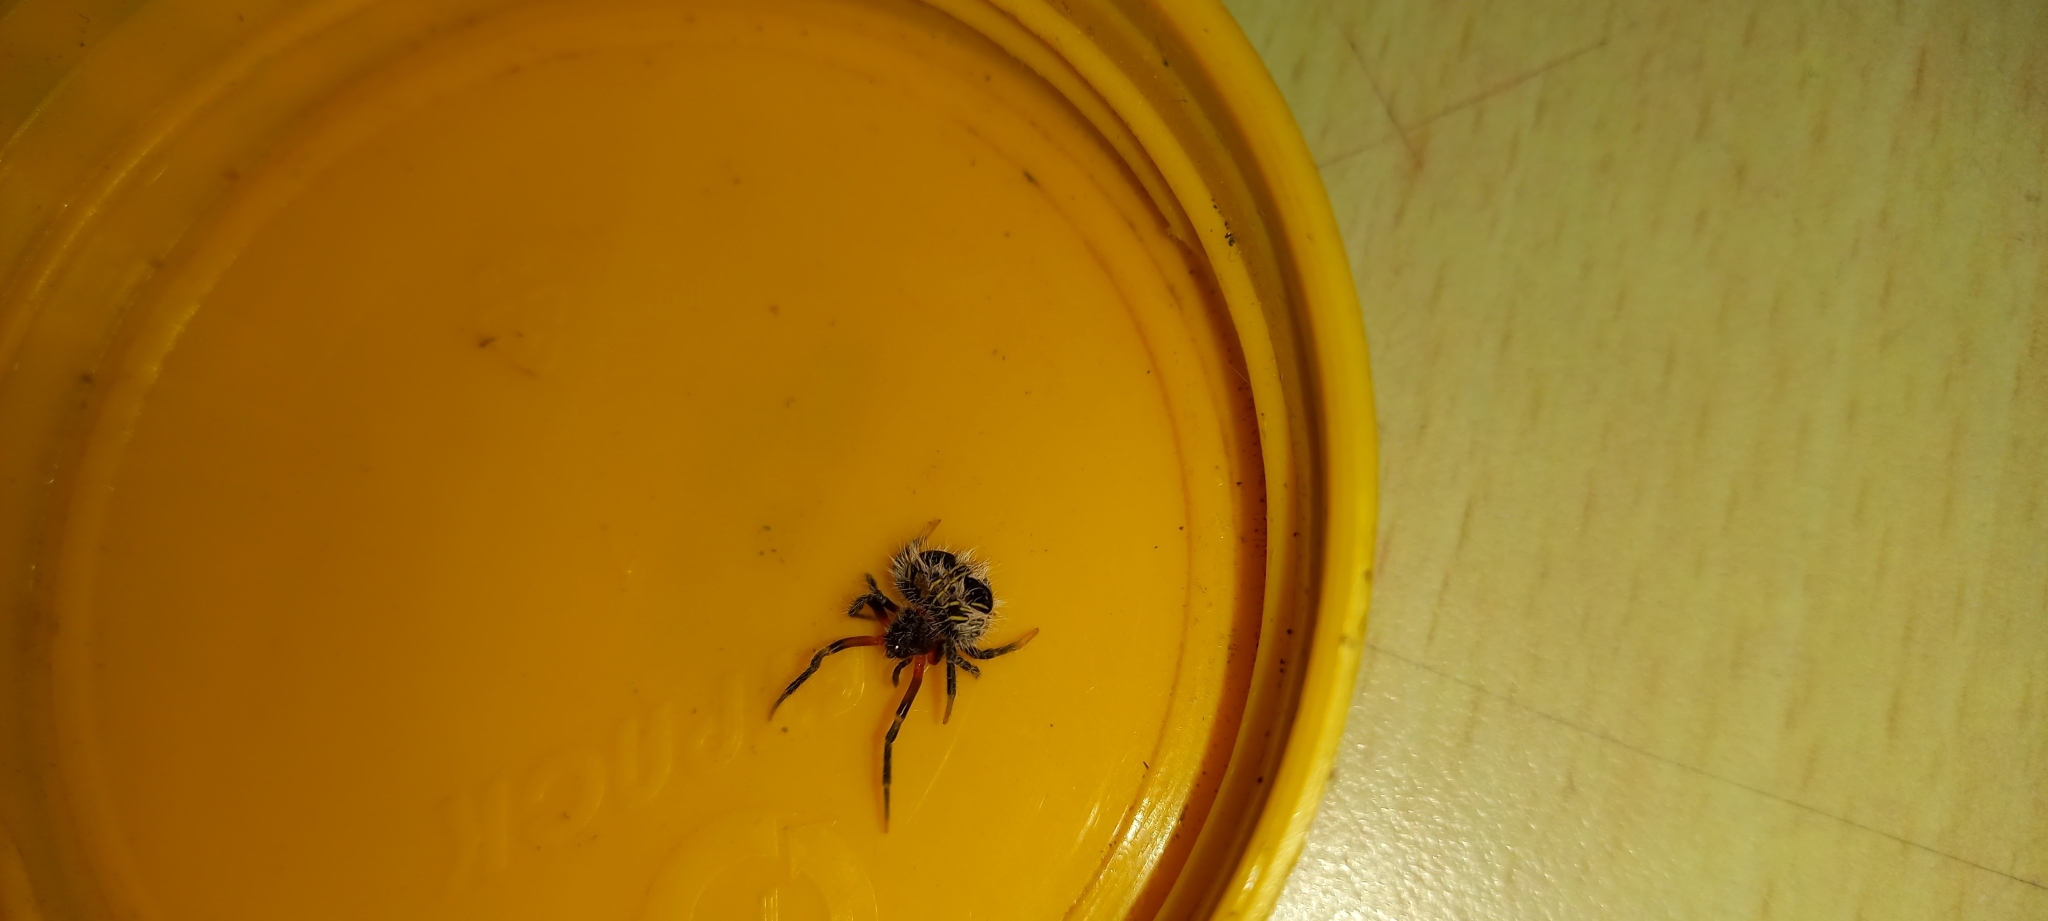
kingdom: Animalia
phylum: Arthropoda
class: Arachnida
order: Araneae
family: Araneidae
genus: Mastophora
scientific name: Mastophora lara
